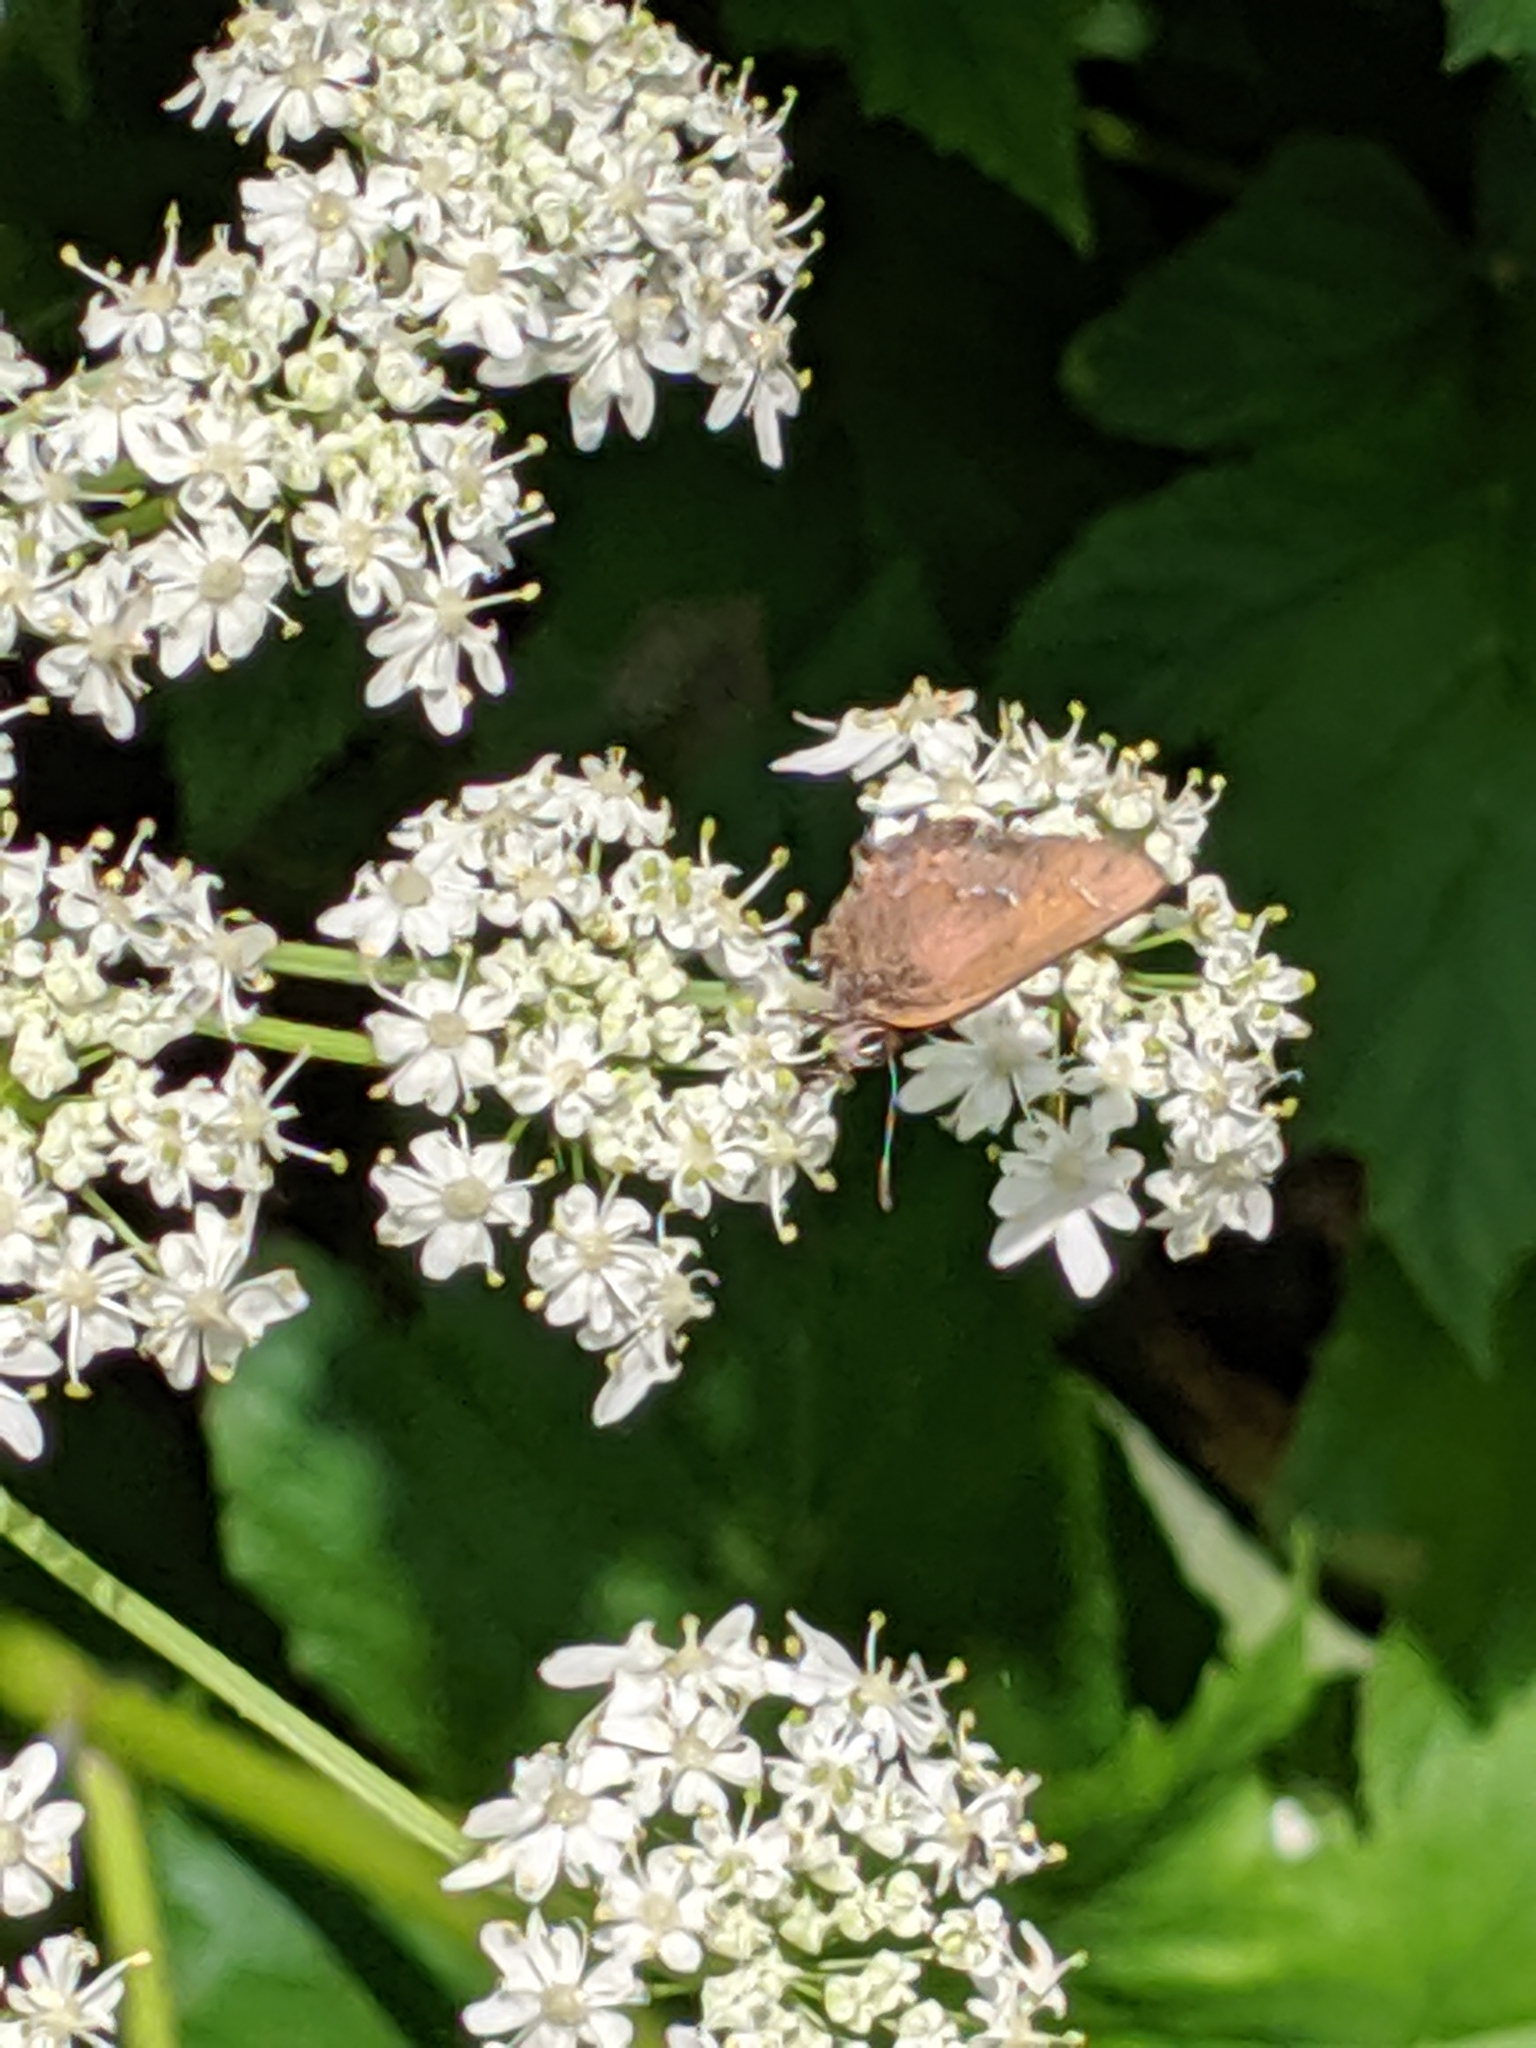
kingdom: Animalia
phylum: Arthropoda
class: Insecta
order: Lepidoptera
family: Lycaenidae
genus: Mitoura
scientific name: Mitoura gryneus
